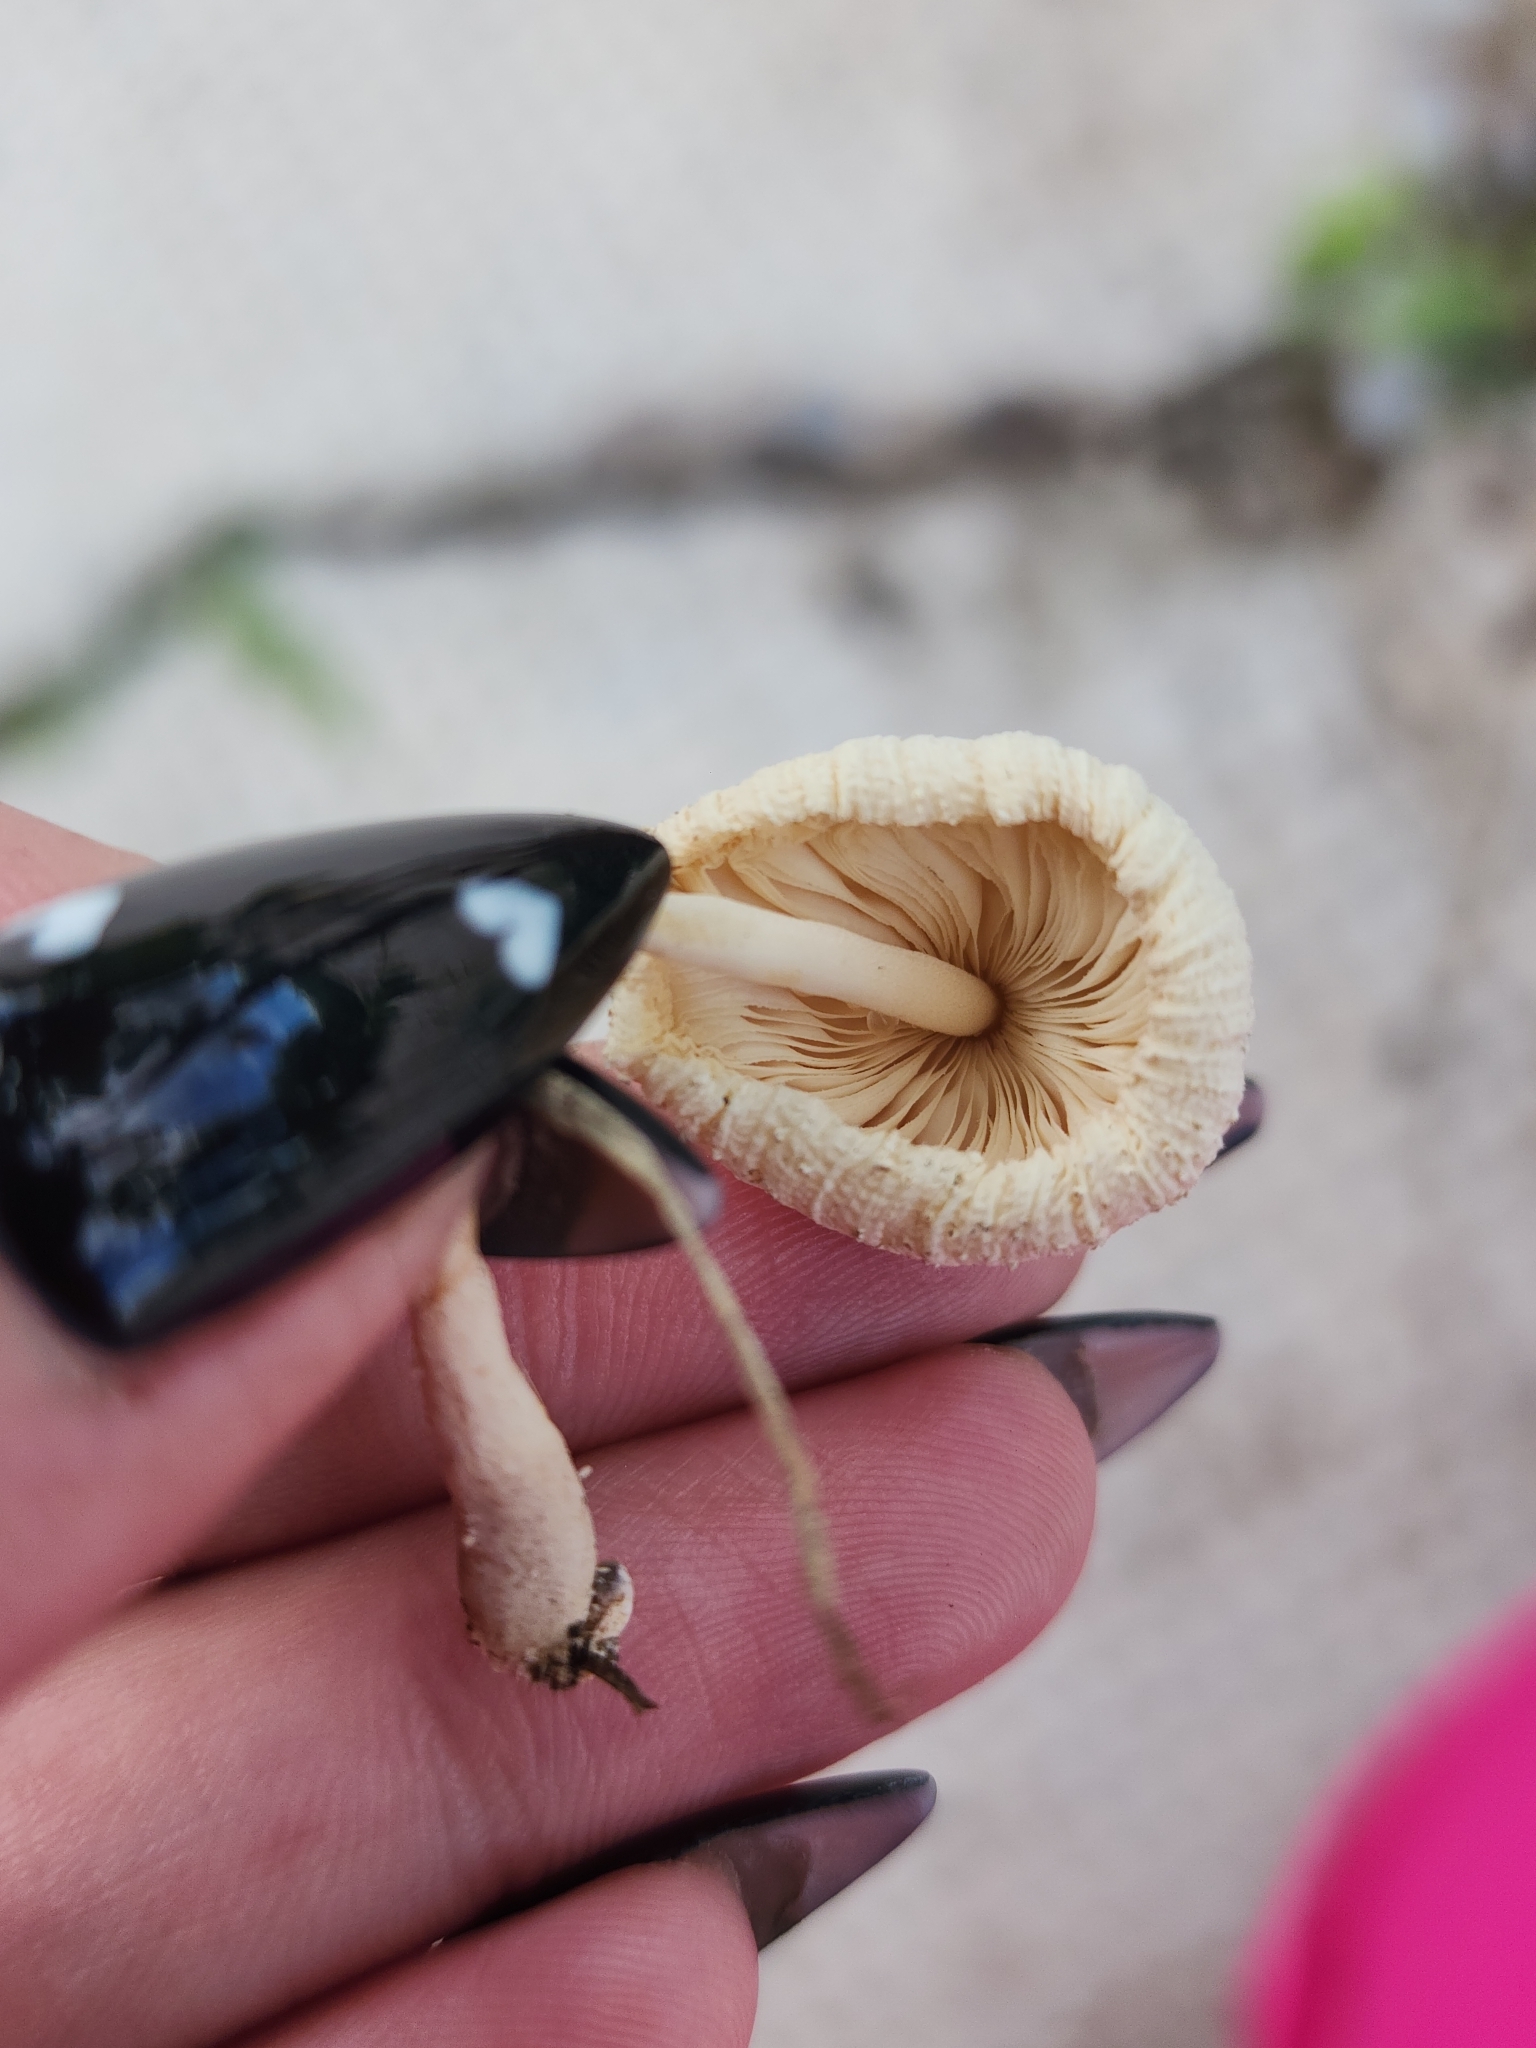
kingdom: Fungi
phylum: Basidiomycota
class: Agaricomycetes
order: Agaricales
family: Agaricaceae
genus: Leucocoprinus
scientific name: Leucocoprinus cepistipes
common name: Onion-stalk parasol
